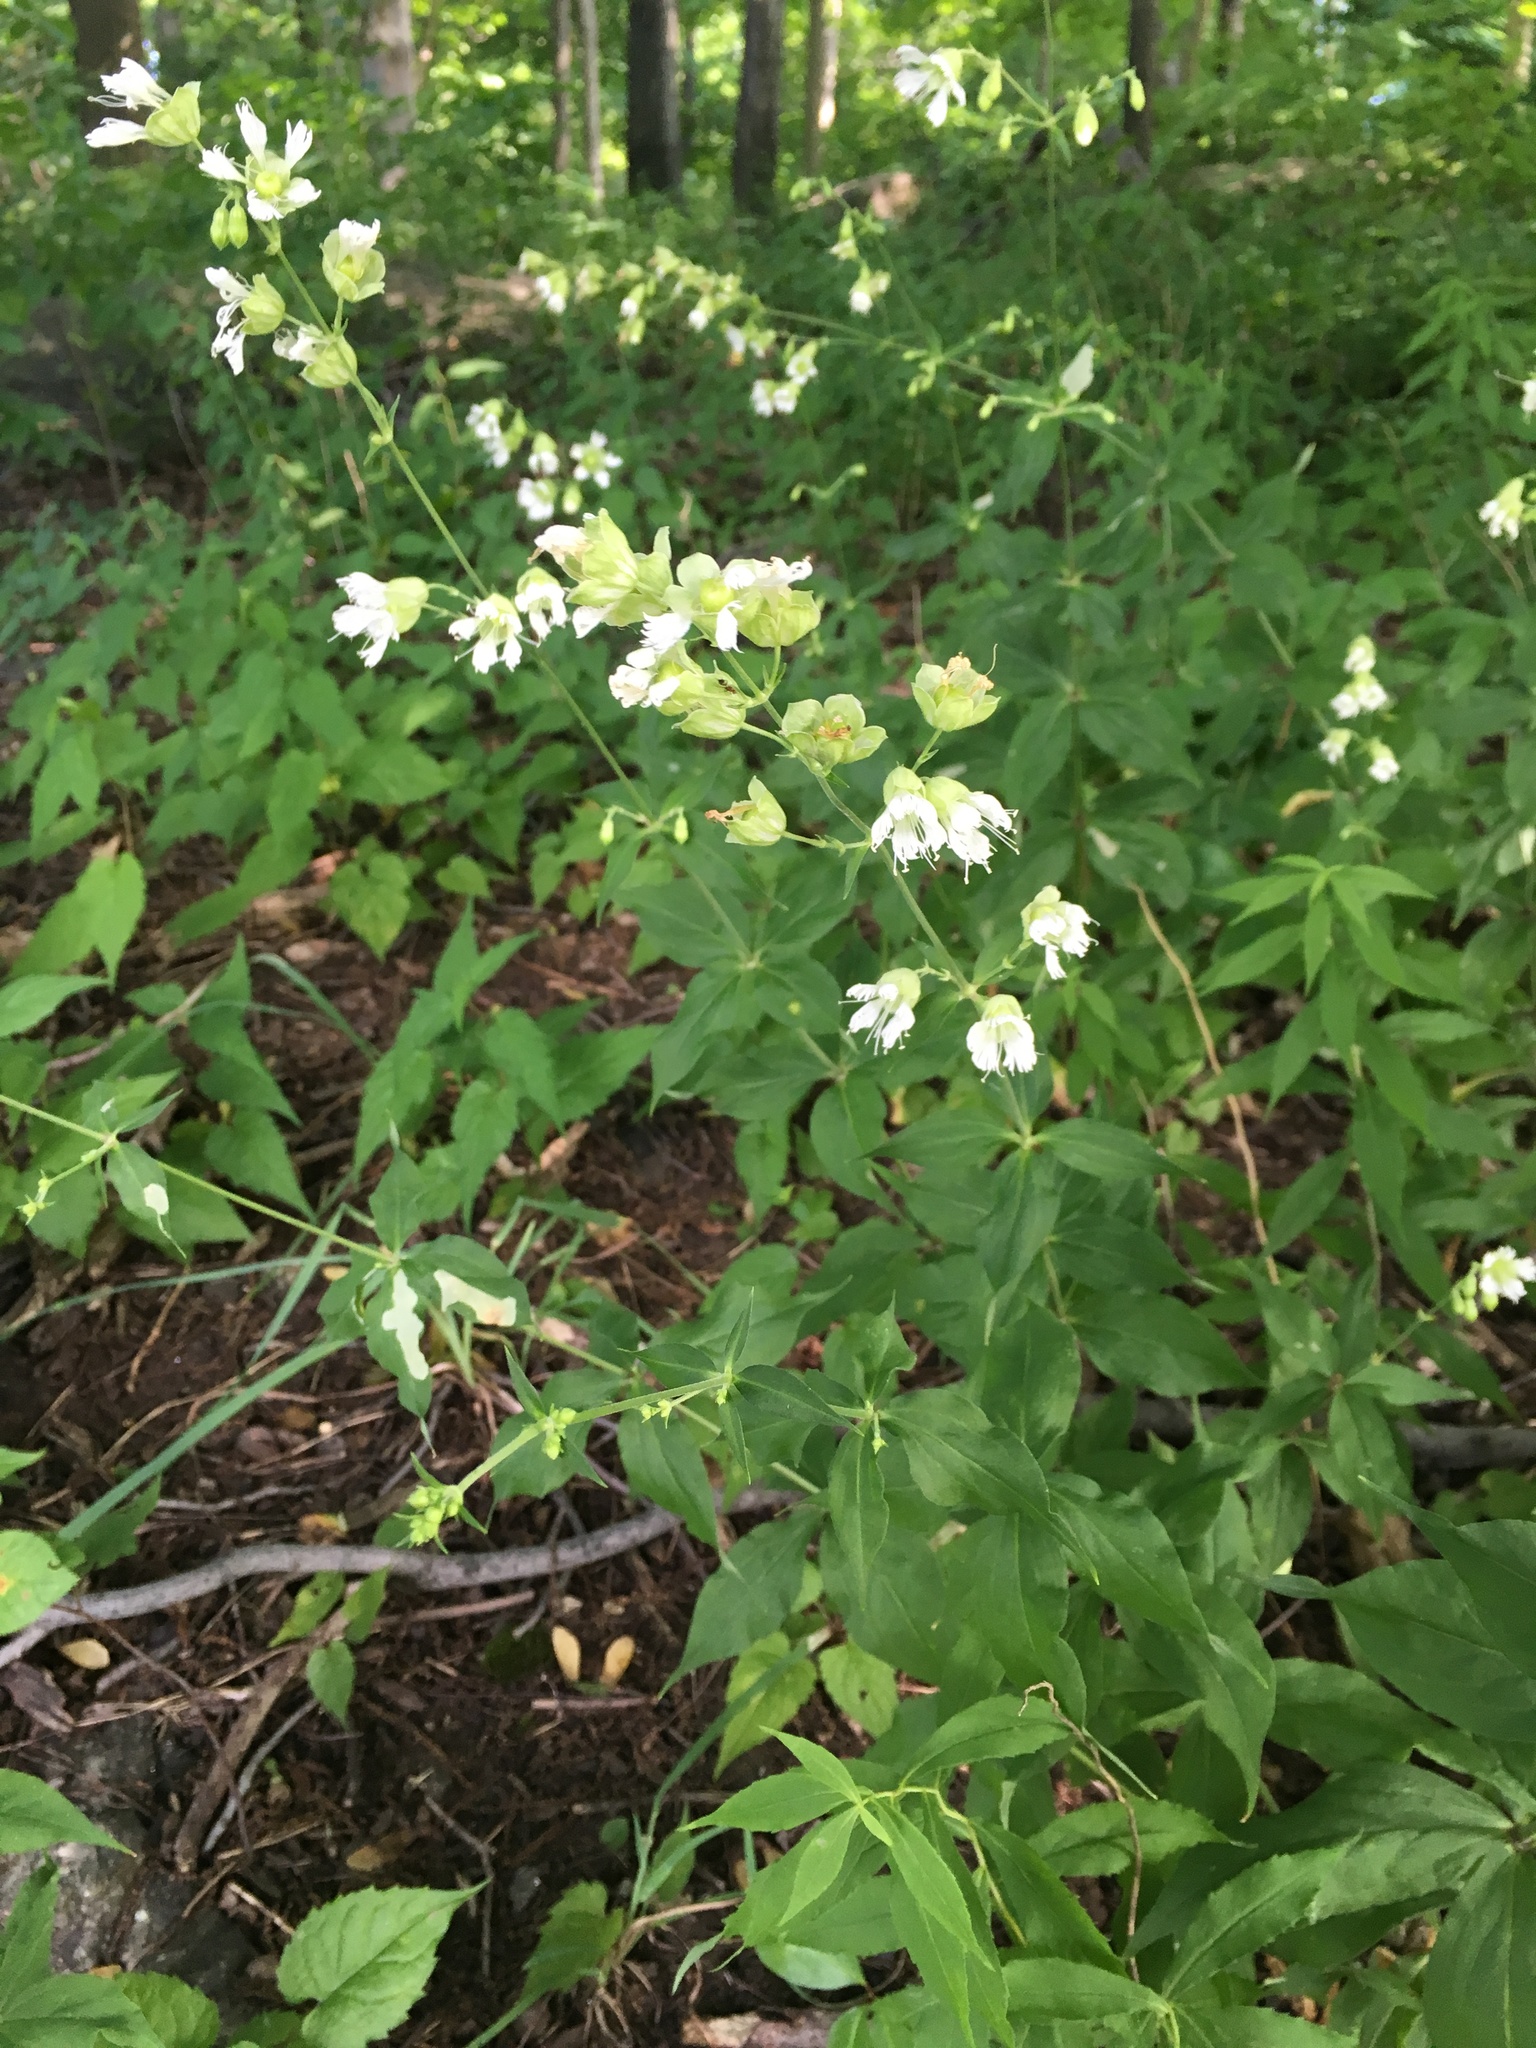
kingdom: Plantae
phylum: Tracheophyta
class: Magnoliopsida
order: Caryophyllales
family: Caryophyllaceae
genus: Silene
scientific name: Silene stellata
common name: Starry campion
